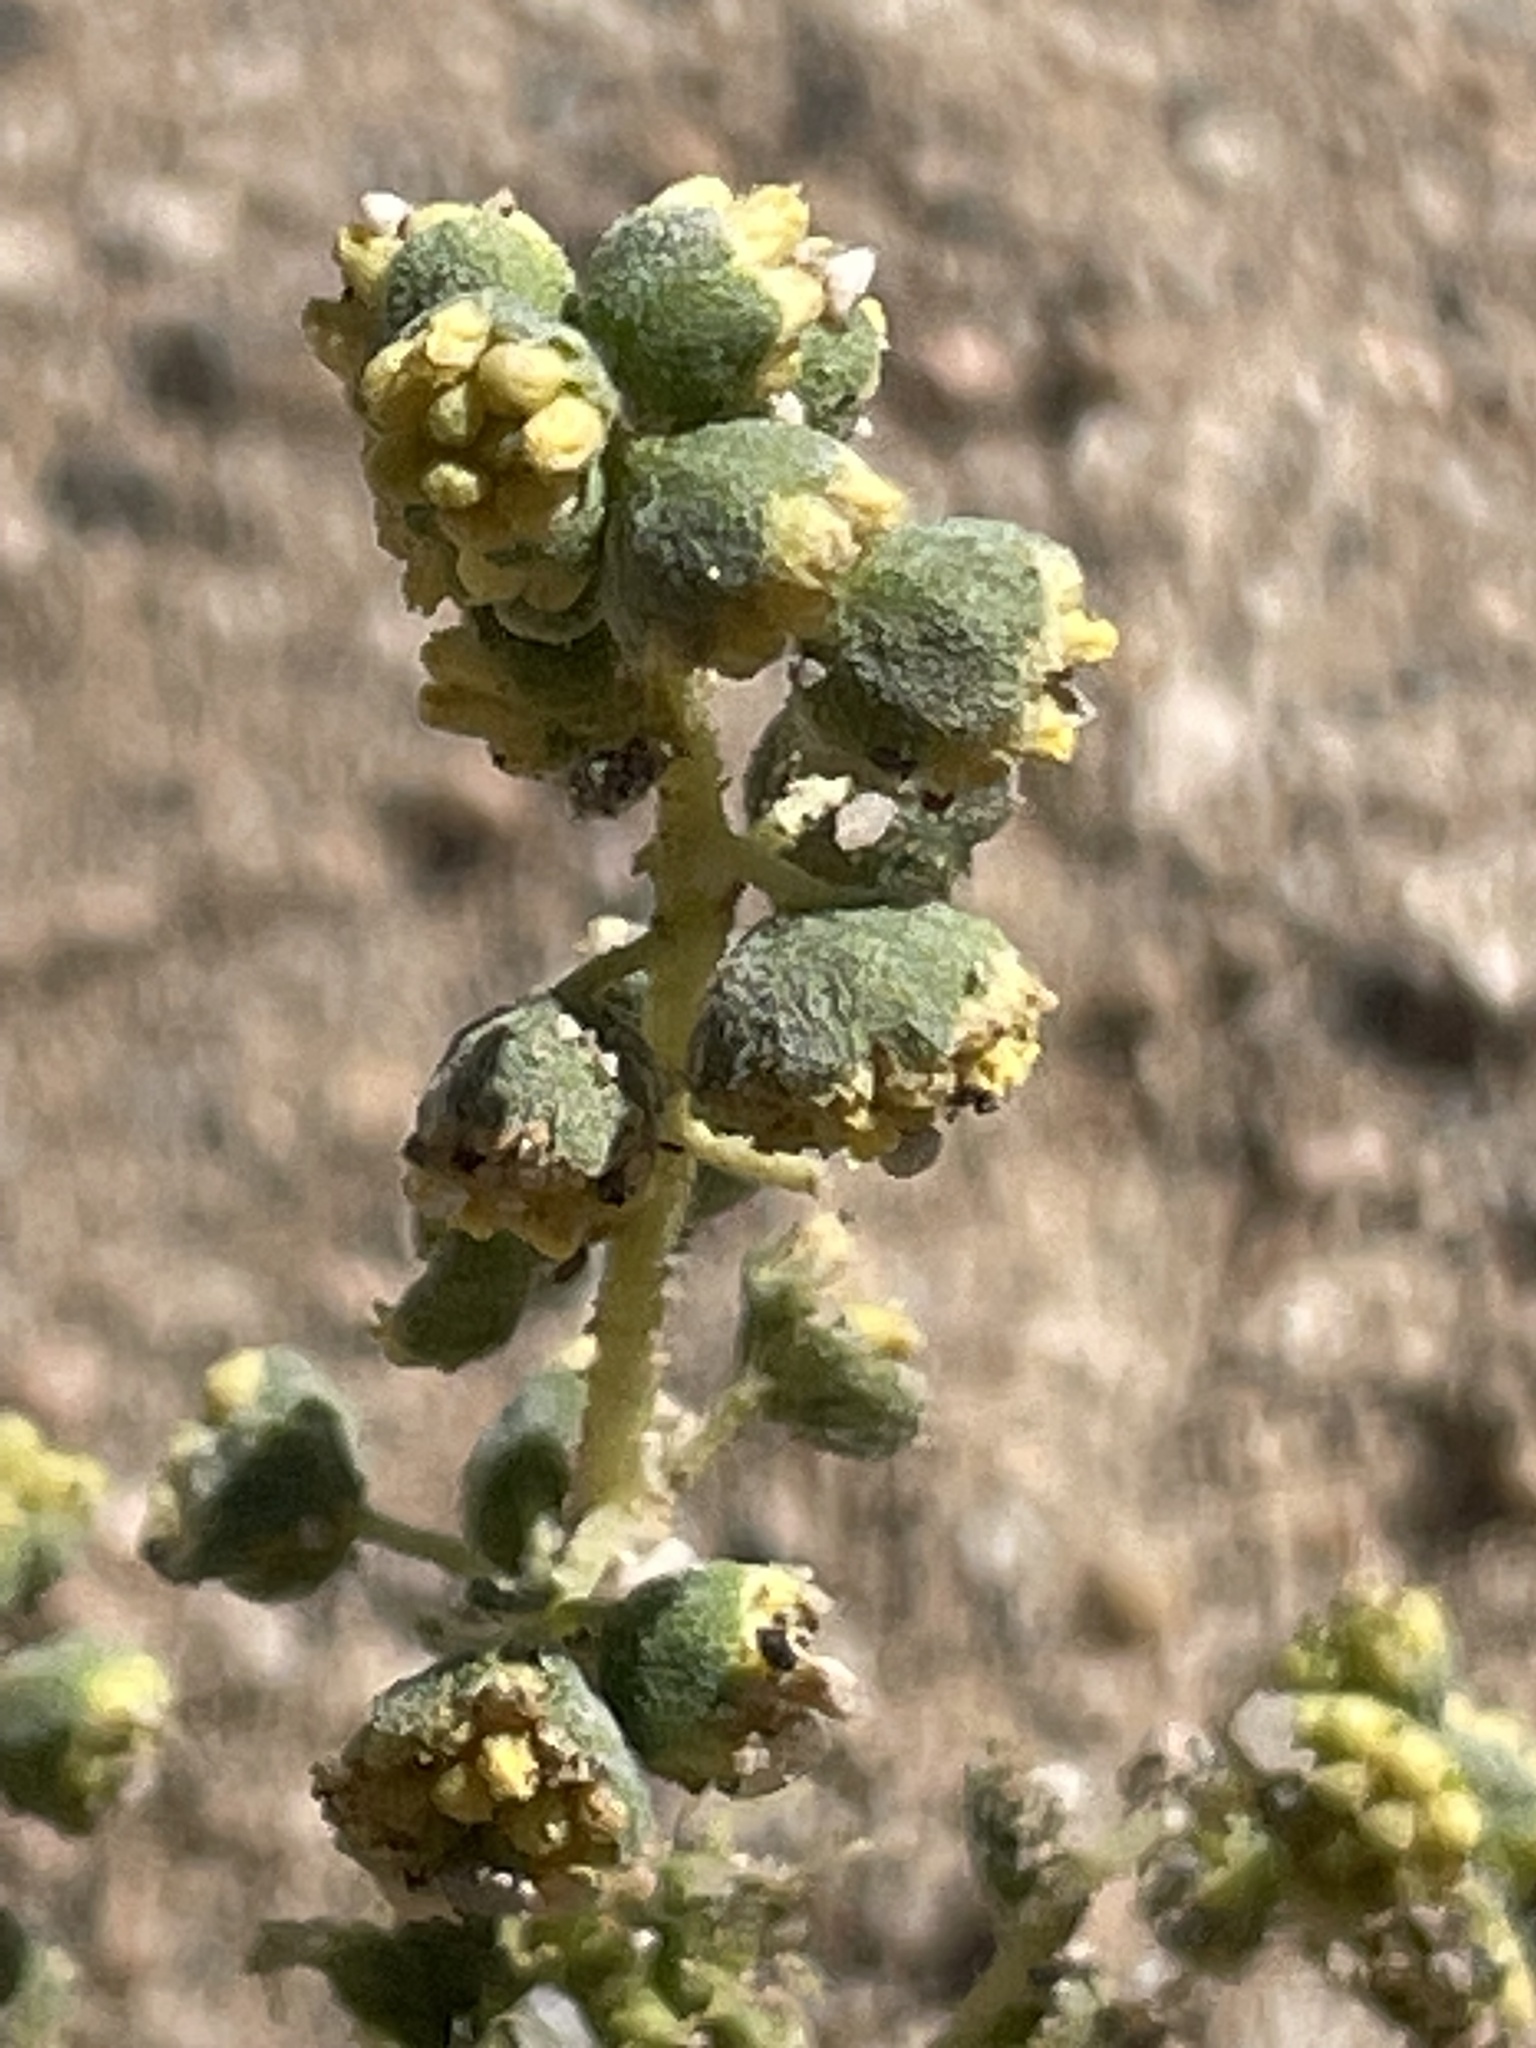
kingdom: Plantae
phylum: Tracheophyta
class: Magnoliopsida
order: Asterales
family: Asteraceae
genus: Ambrosia
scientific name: Ambrosia pumila
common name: San diego ambrosia
